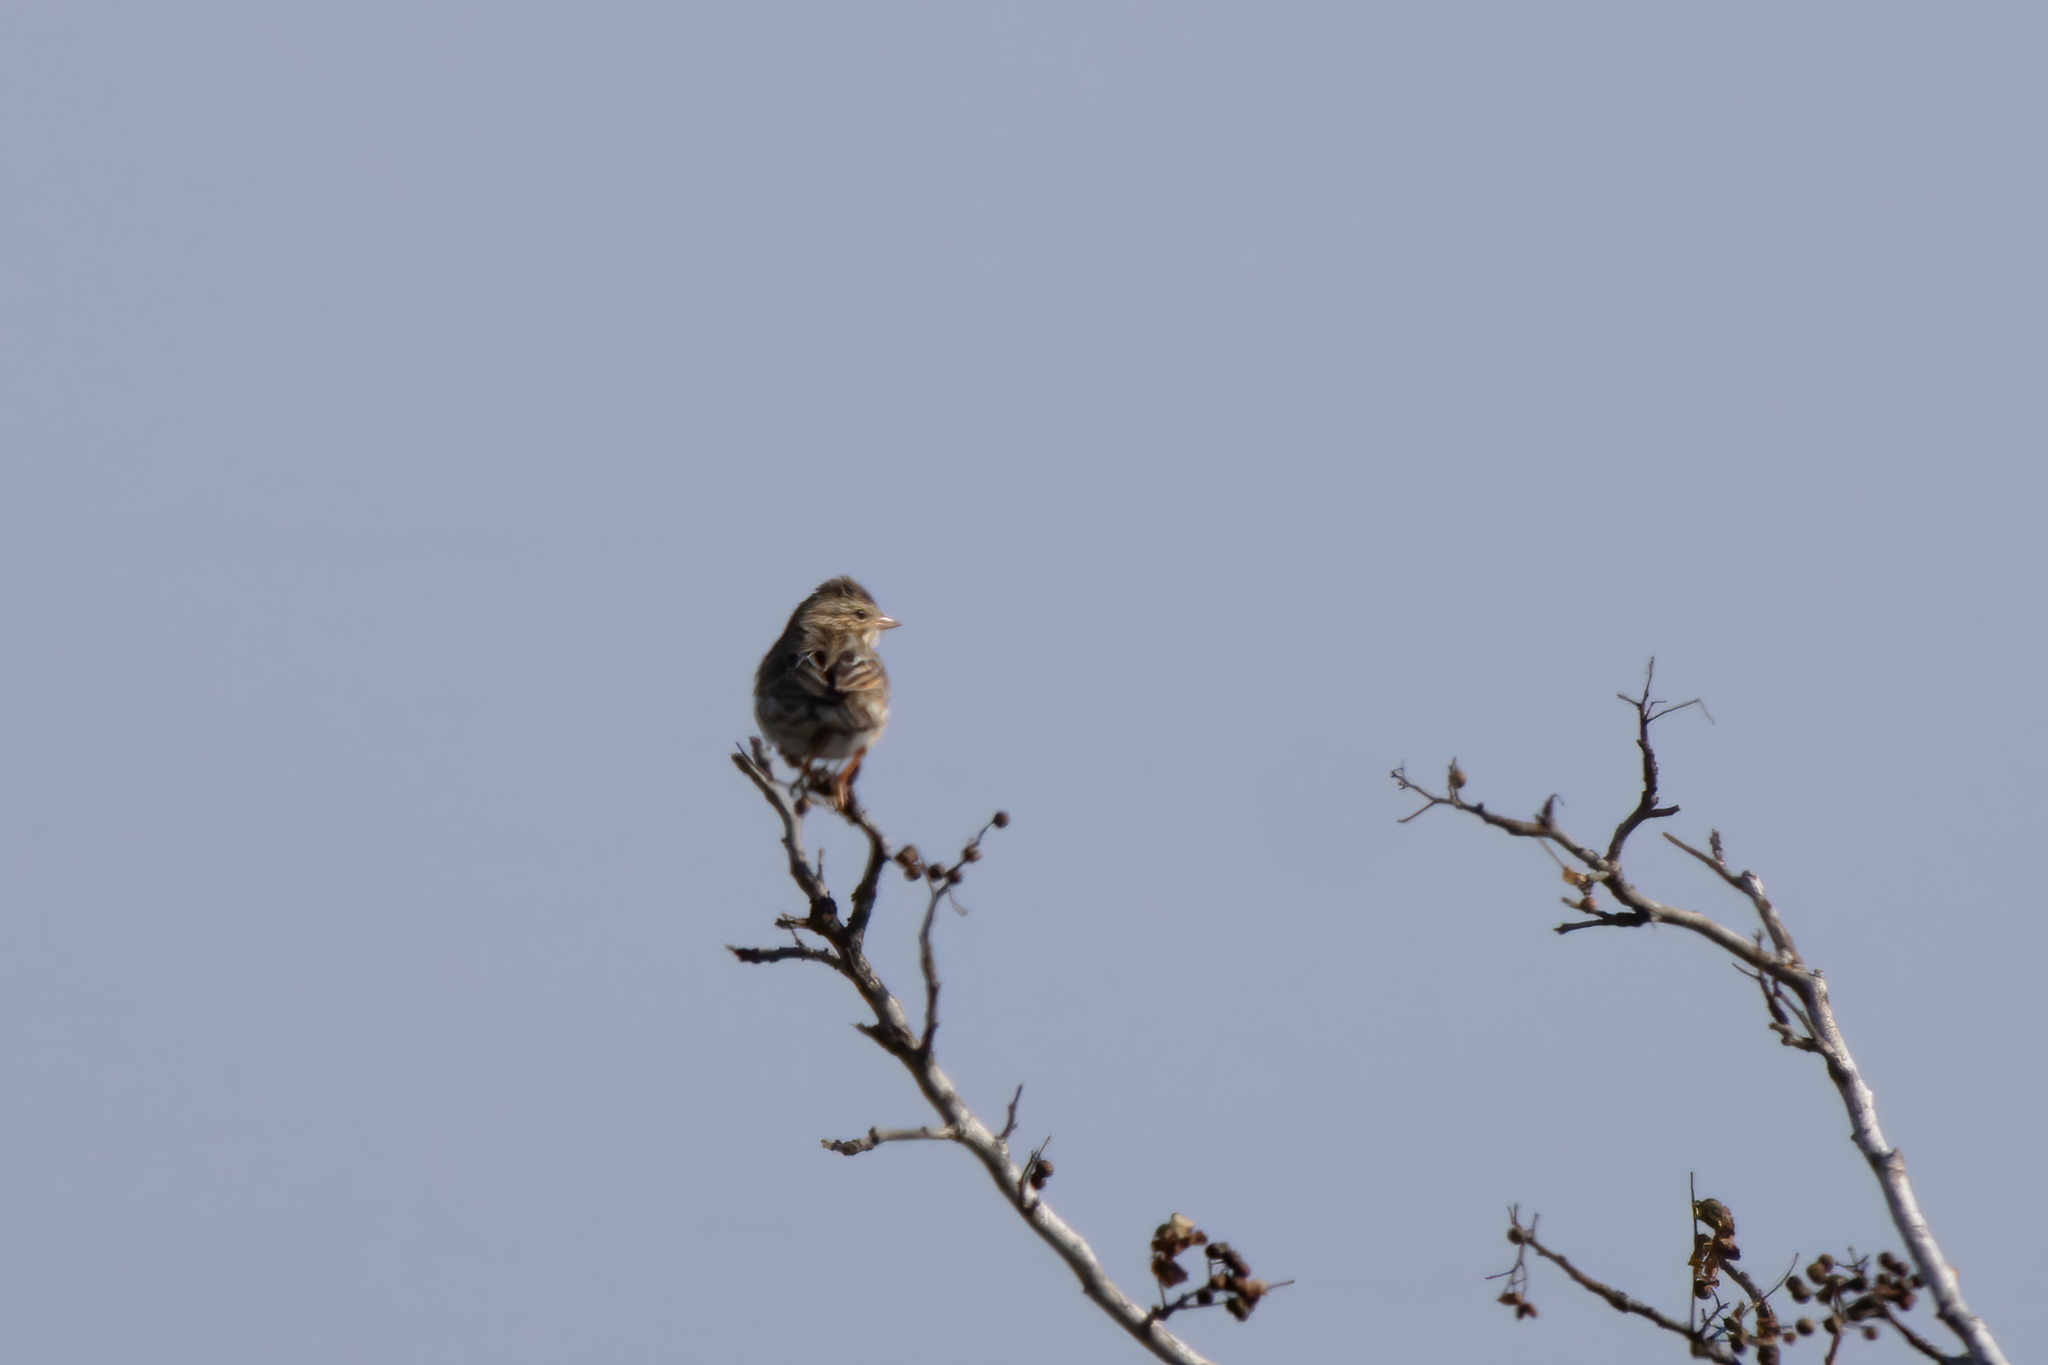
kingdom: Animalia
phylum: Chordata
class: Aves
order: Passeriformes
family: Passerellidae
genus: Passerculus
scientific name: Passerculus sandwichensis
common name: Savannah sparrow
